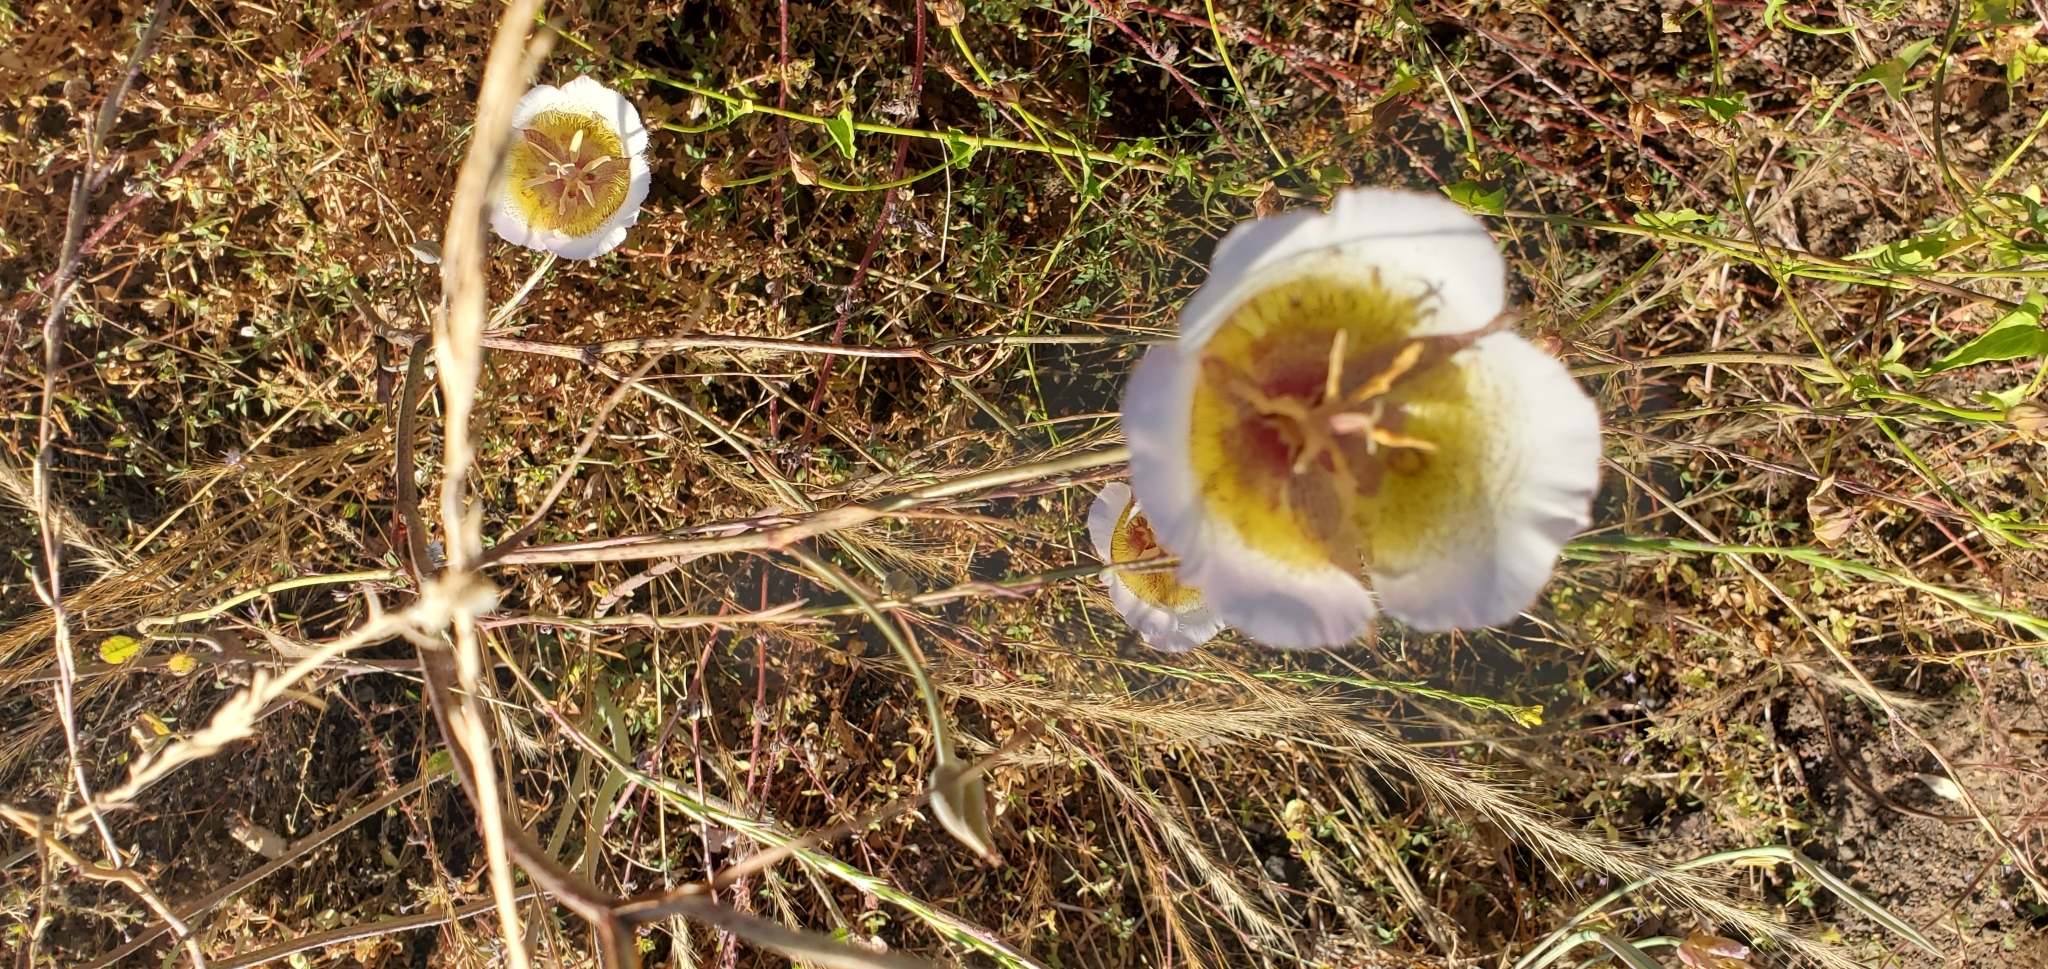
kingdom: Plantae
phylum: Tracheophyta
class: Liliopsida
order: Liliales
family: Liliaceae
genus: Calochortus
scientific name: Calochortus plummerae
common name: Plummer's mariposa-lily
